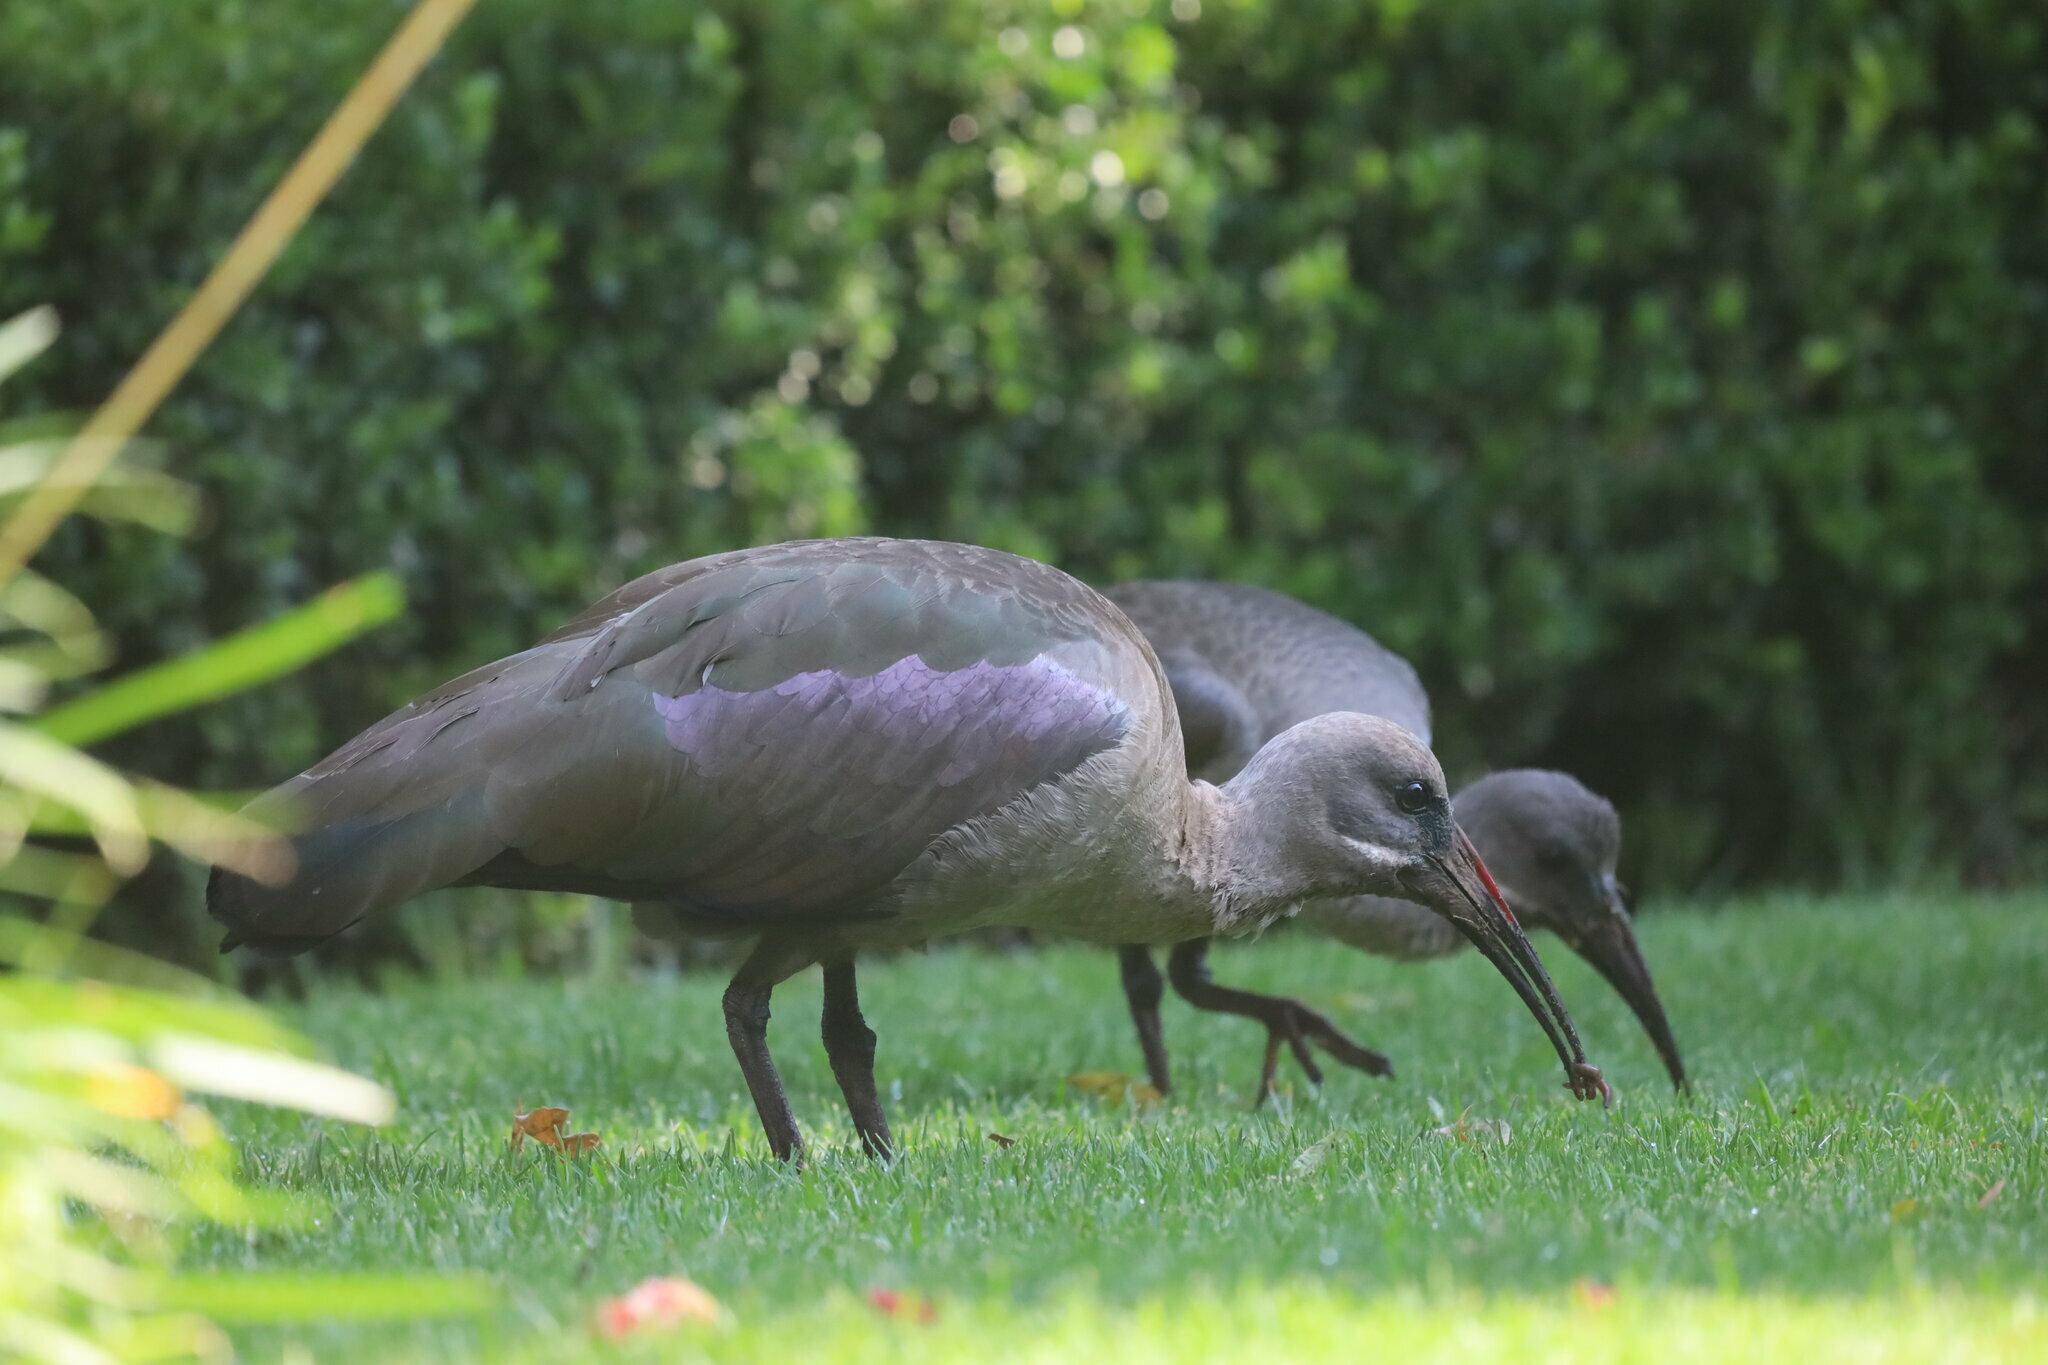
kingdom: Animalia
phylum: Chordata
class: Aves
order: Pelecaniformes
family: Threskiornithidae
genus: Bostrychia
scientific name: Bostrychia hagedash
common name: Hadada ibis
